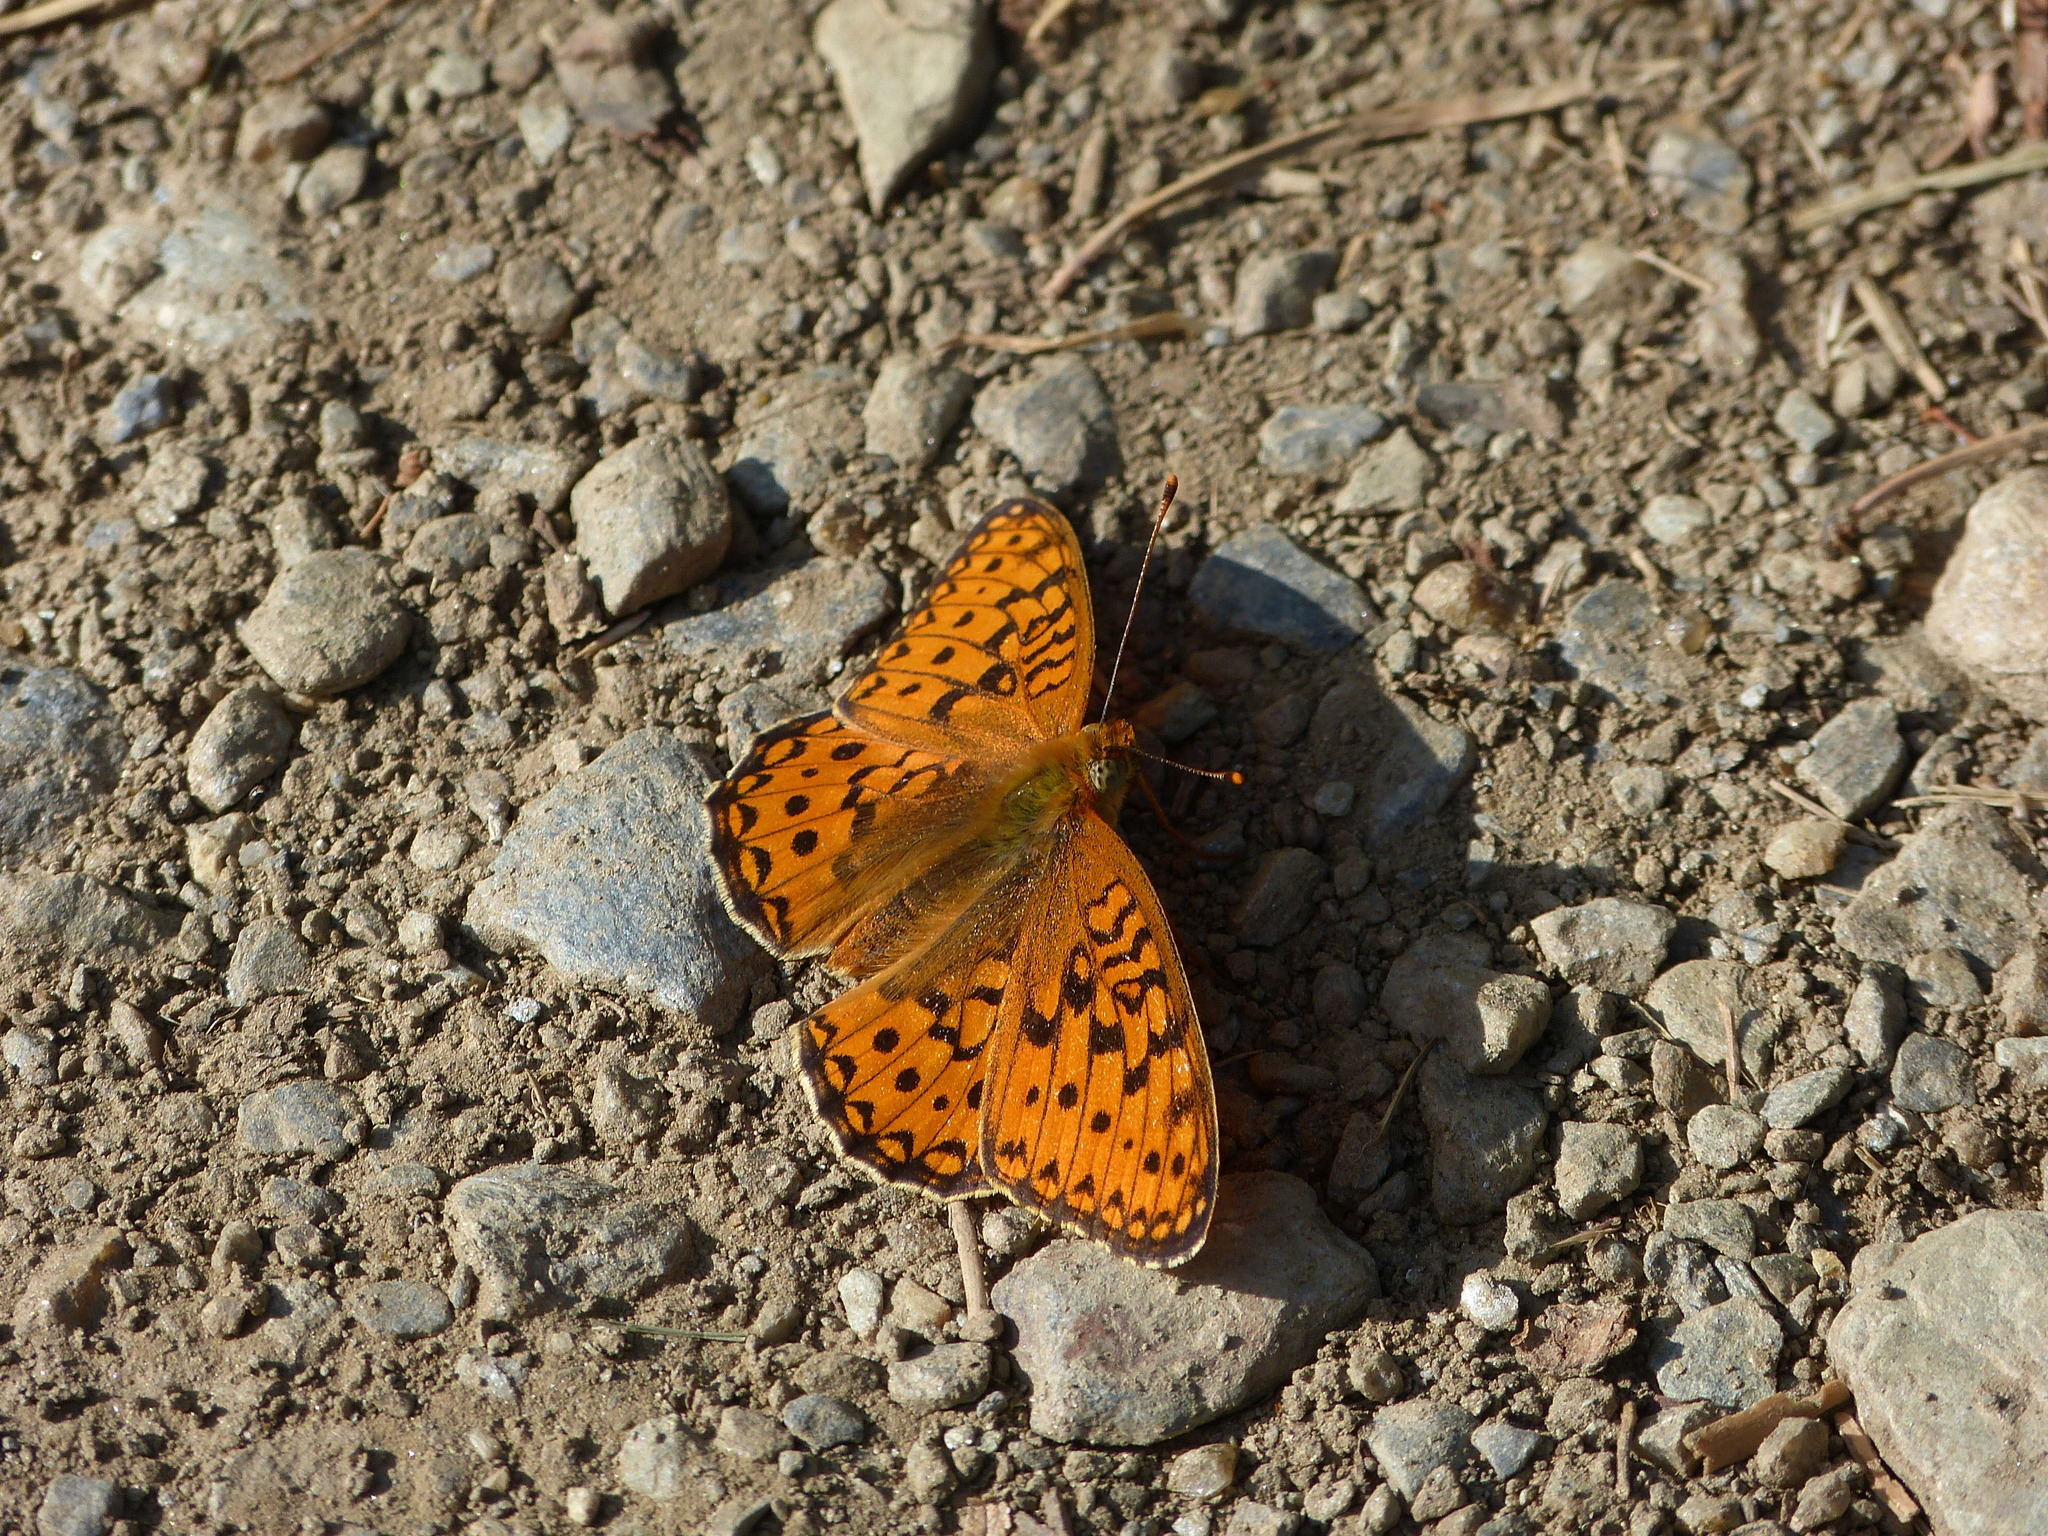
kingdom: Animalia
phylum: Arthropoda
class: Insecta
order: Lepidoptera
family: Nymphalidae
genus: Fabriciana
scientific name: Fabriciana niobe
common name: Niobe fritillary
